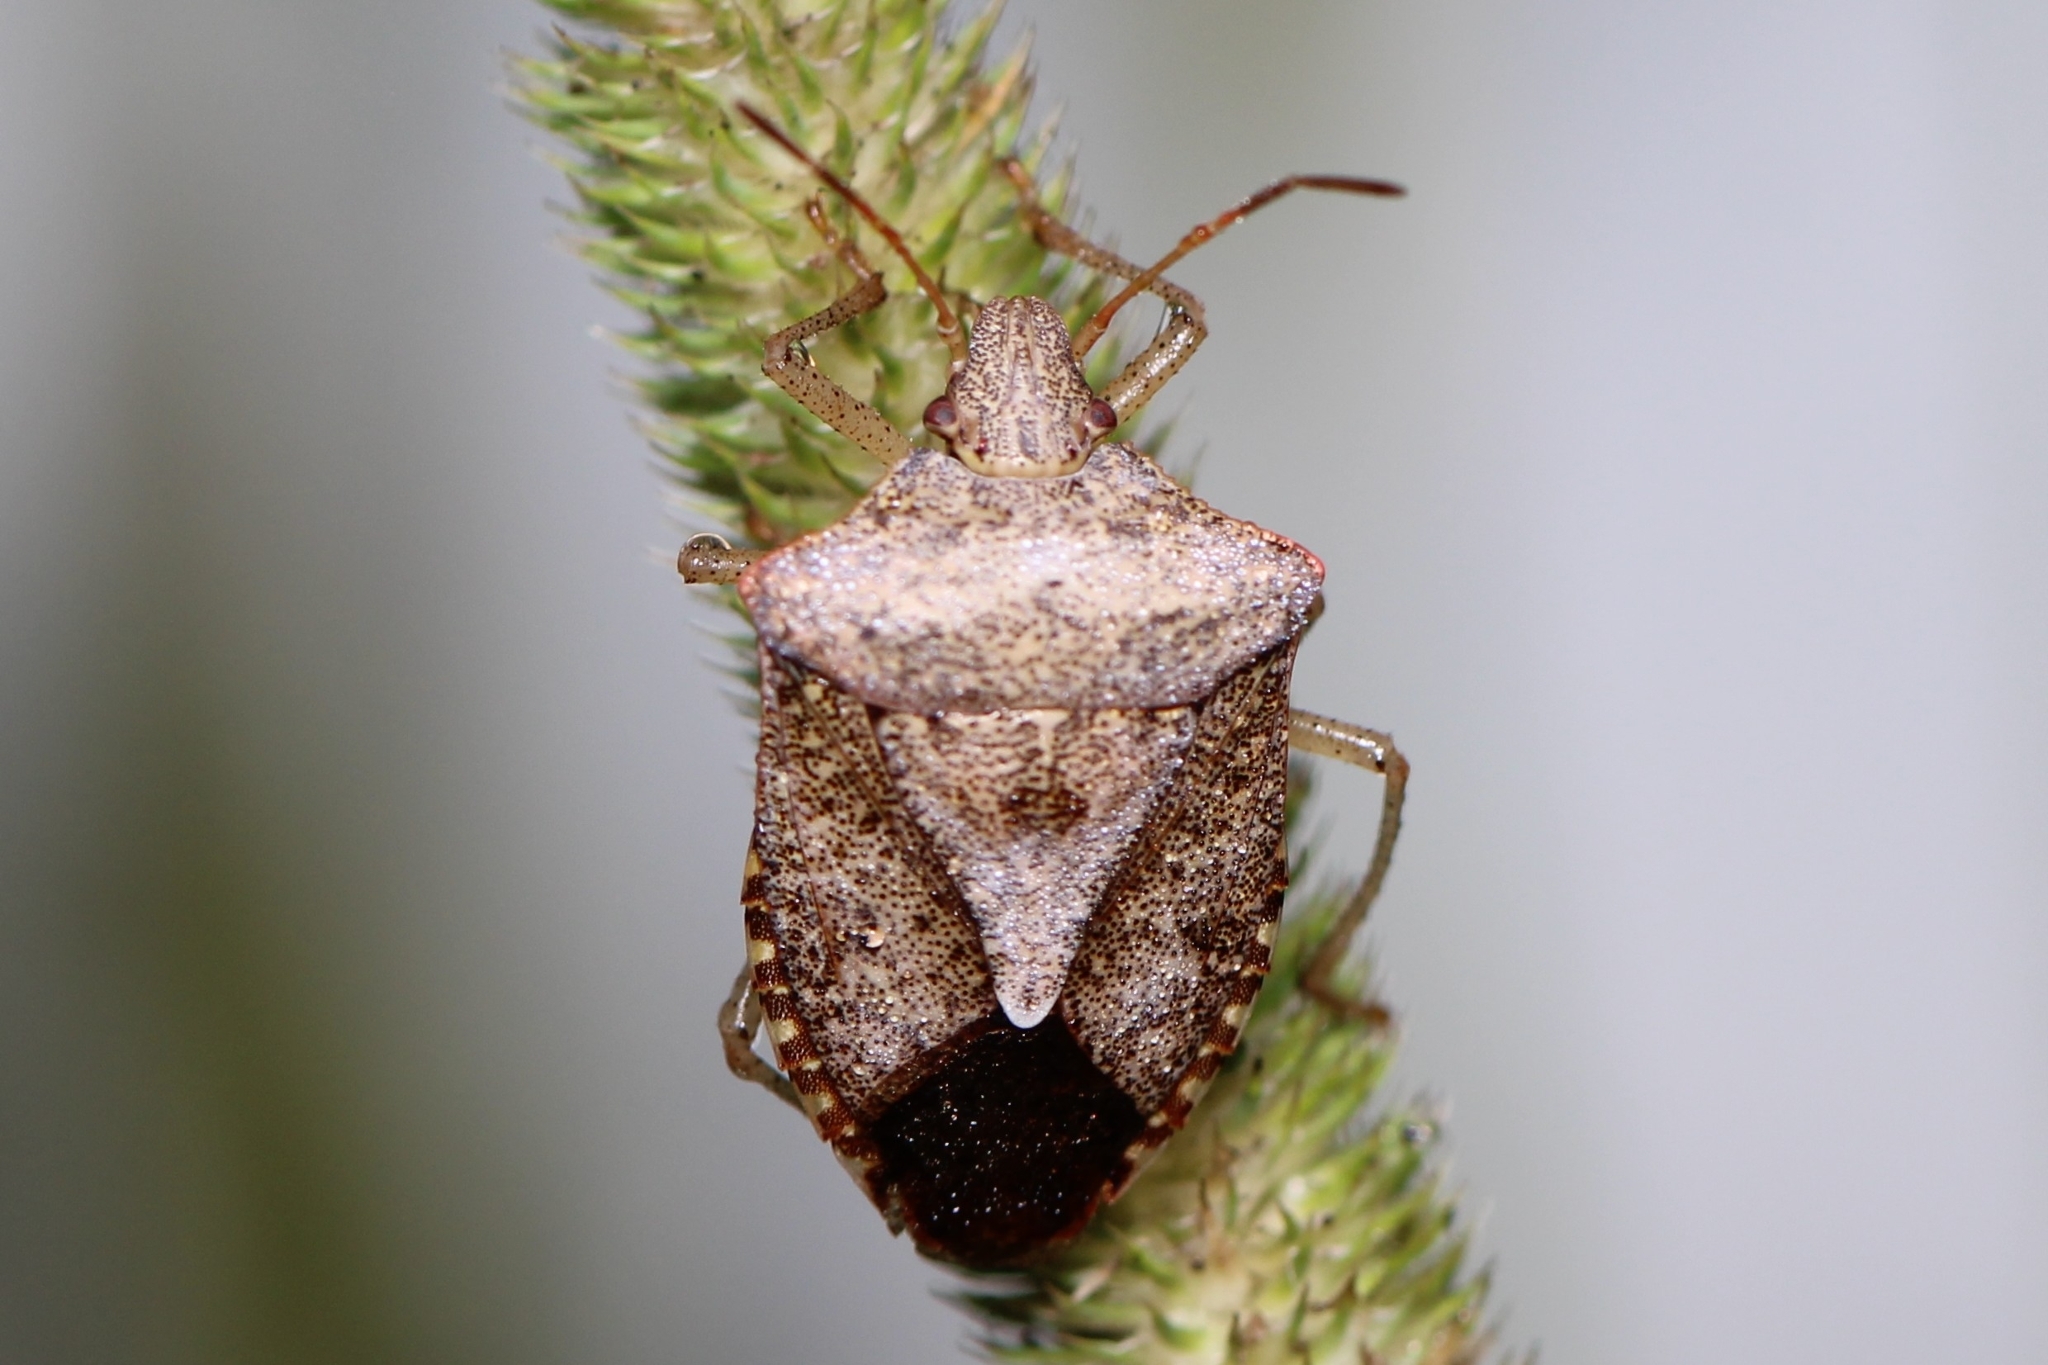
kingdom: Animalia
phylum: Arthropoda
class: Insecta
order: Hemiptera
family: Pentatomidae
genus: Euschistus
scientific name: Euschistus
